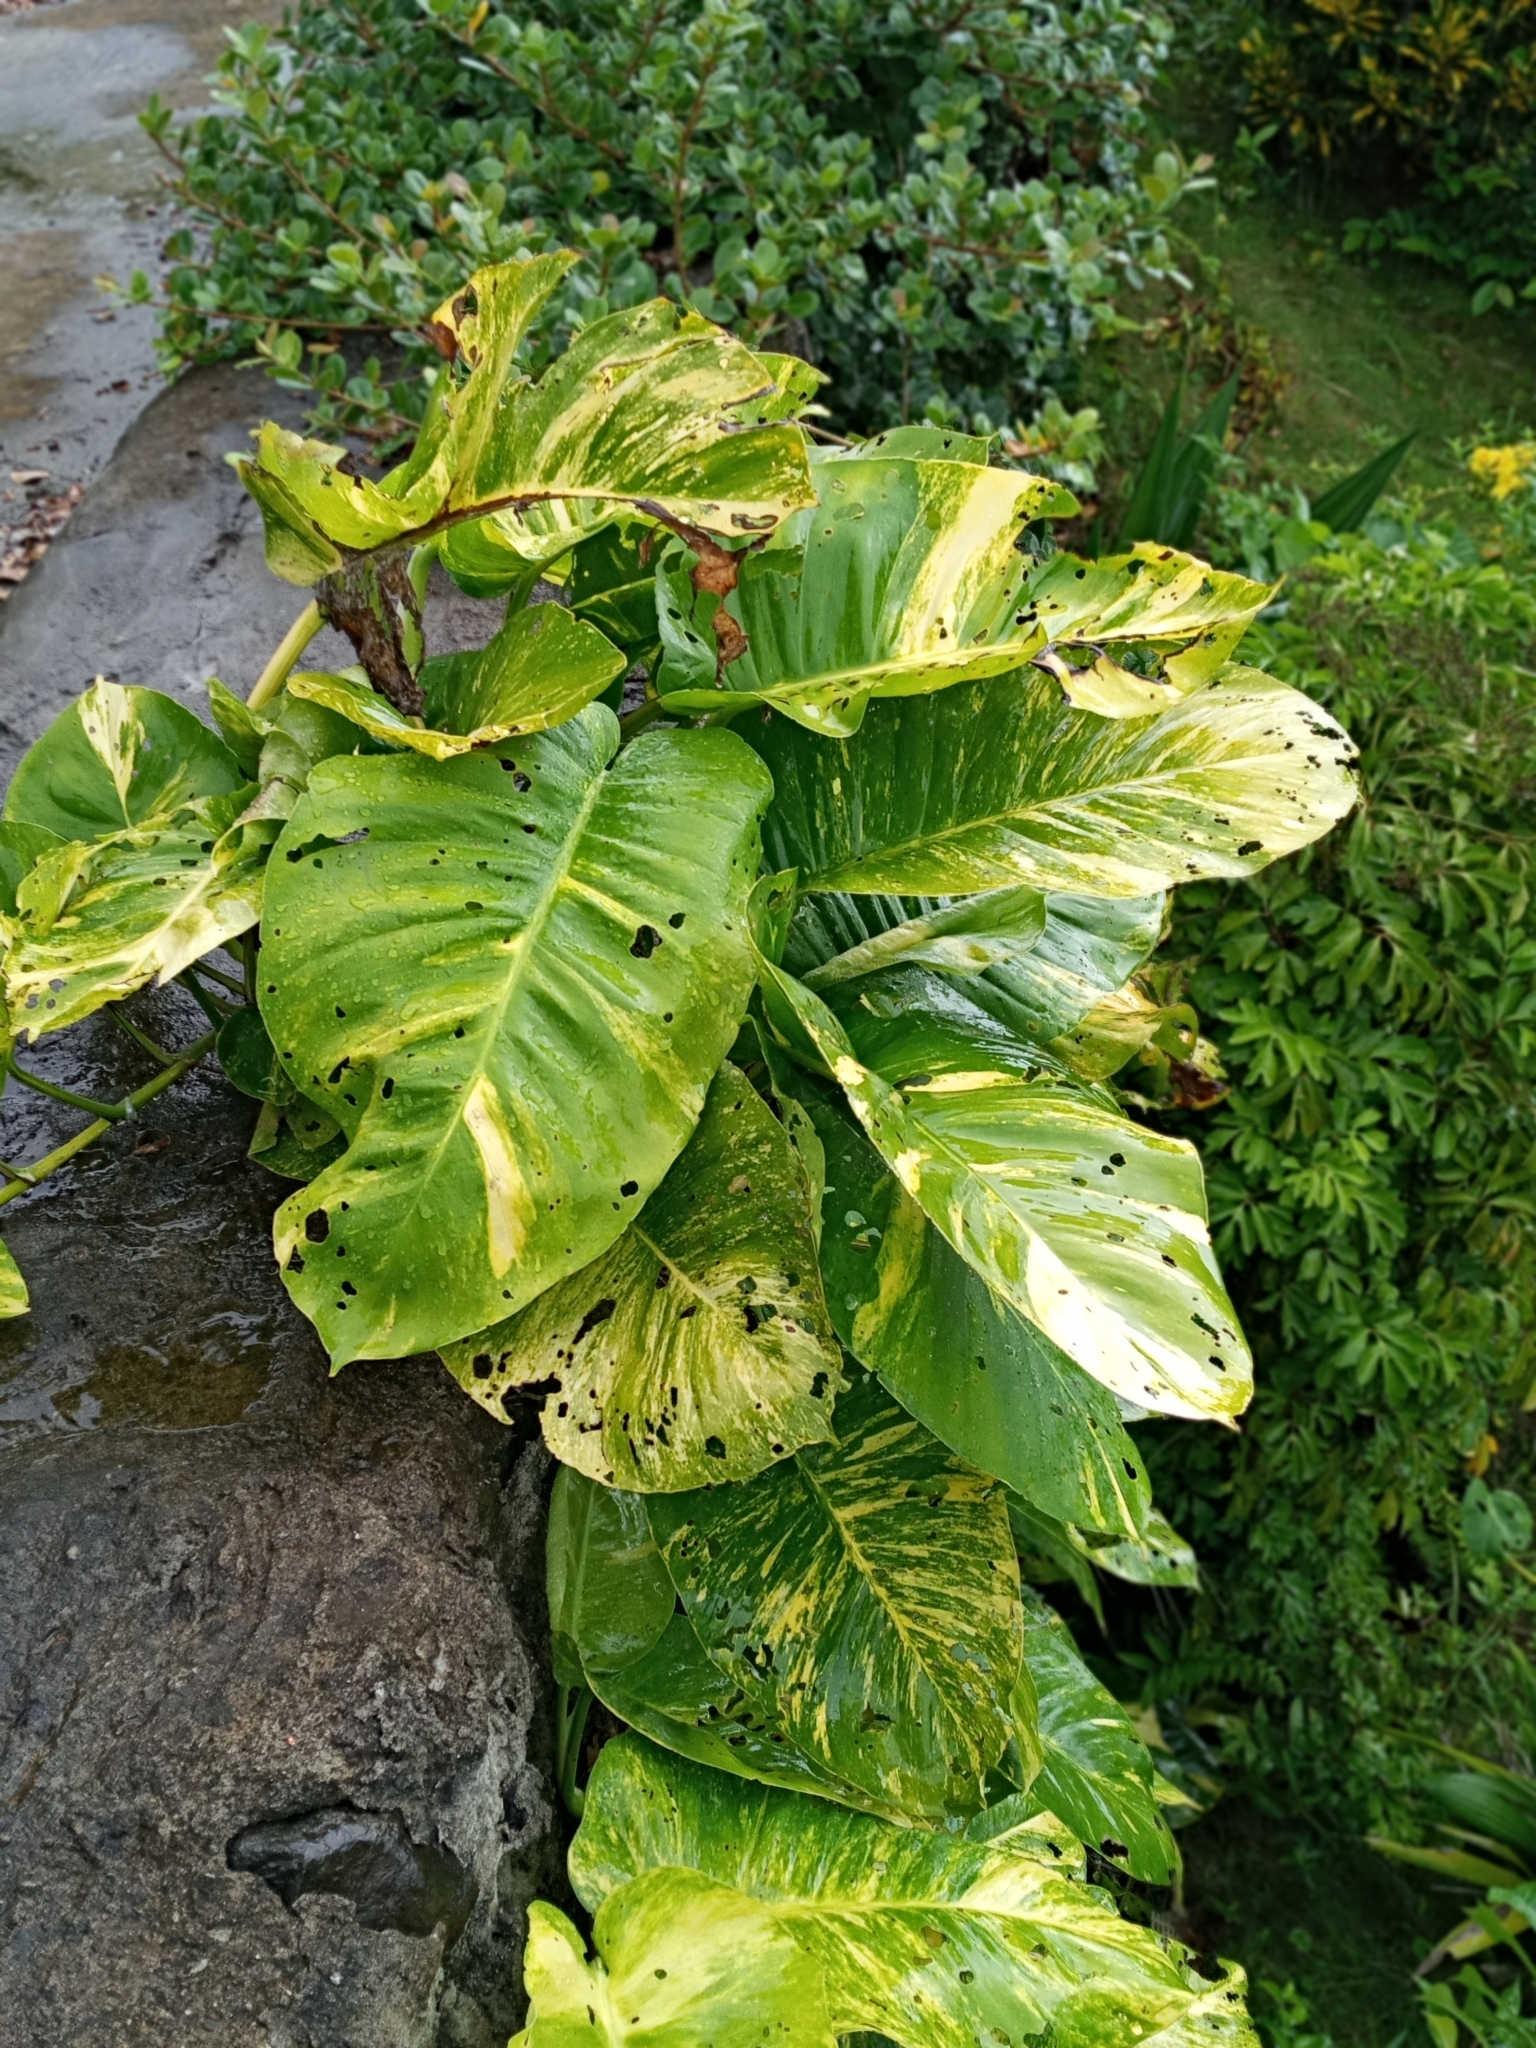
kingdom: Plantae
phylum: Tracheophyta
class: Liliopsida
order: Alismatales
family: Araceae
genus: Epipremnum
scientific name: Epipremnum aureum
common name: Golden hunter's-robe
